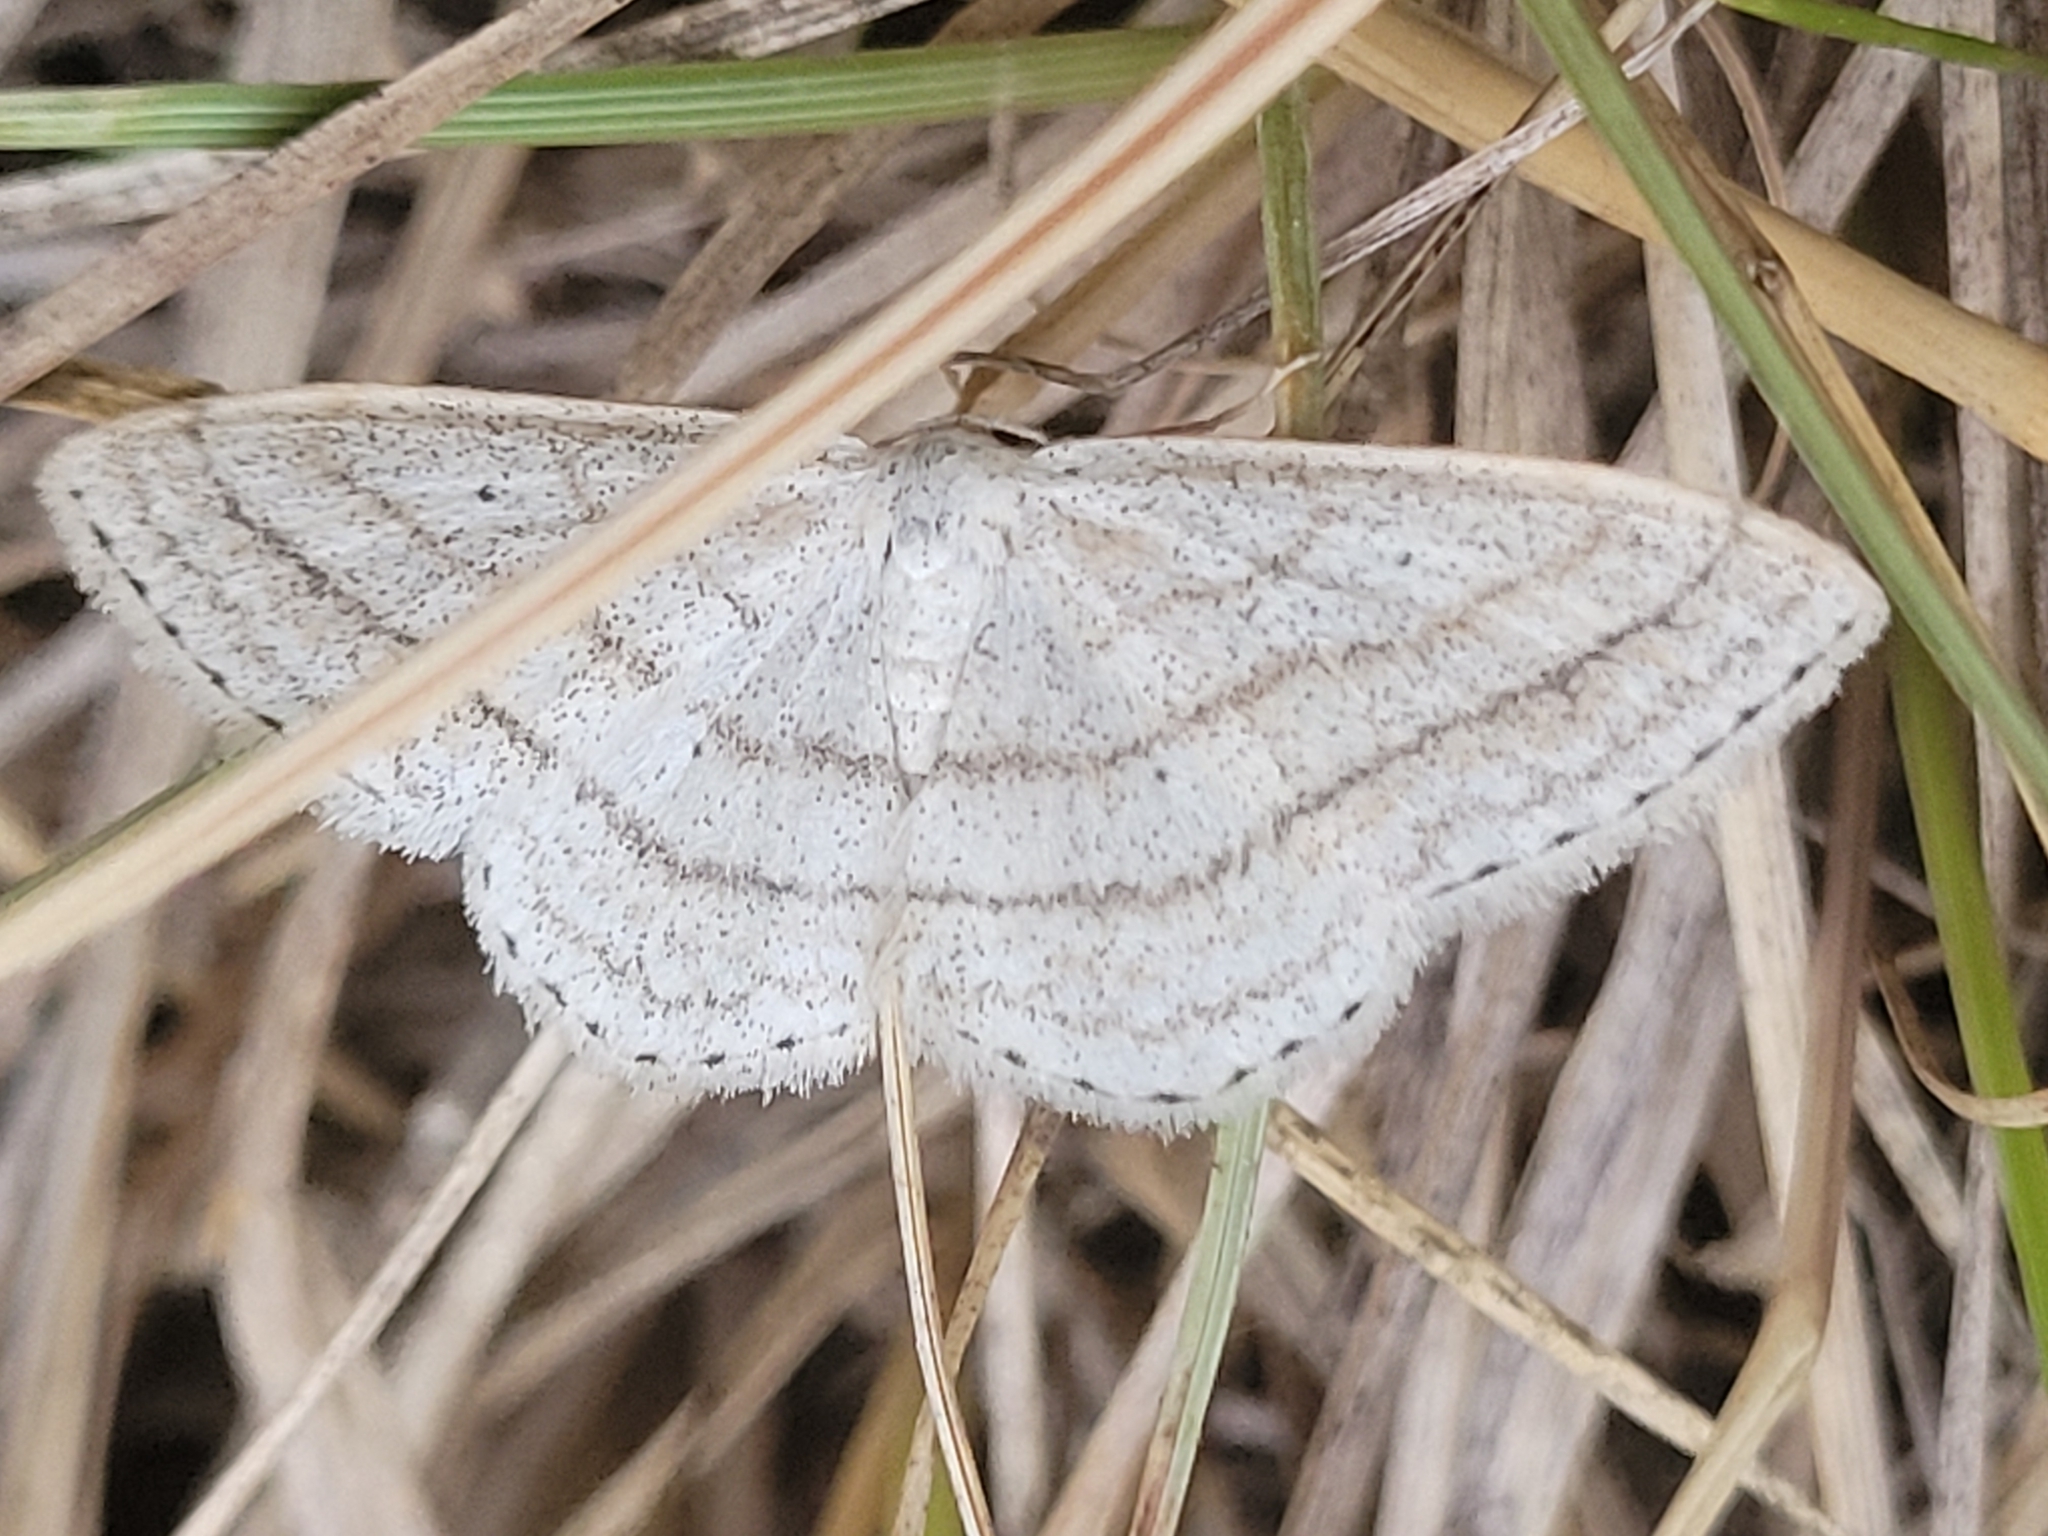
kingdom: Animalia
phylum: Arthropoda
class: Insecta
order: Lepidoptera
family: Geometridae
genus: Scopula
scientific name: Scopula ancellata
